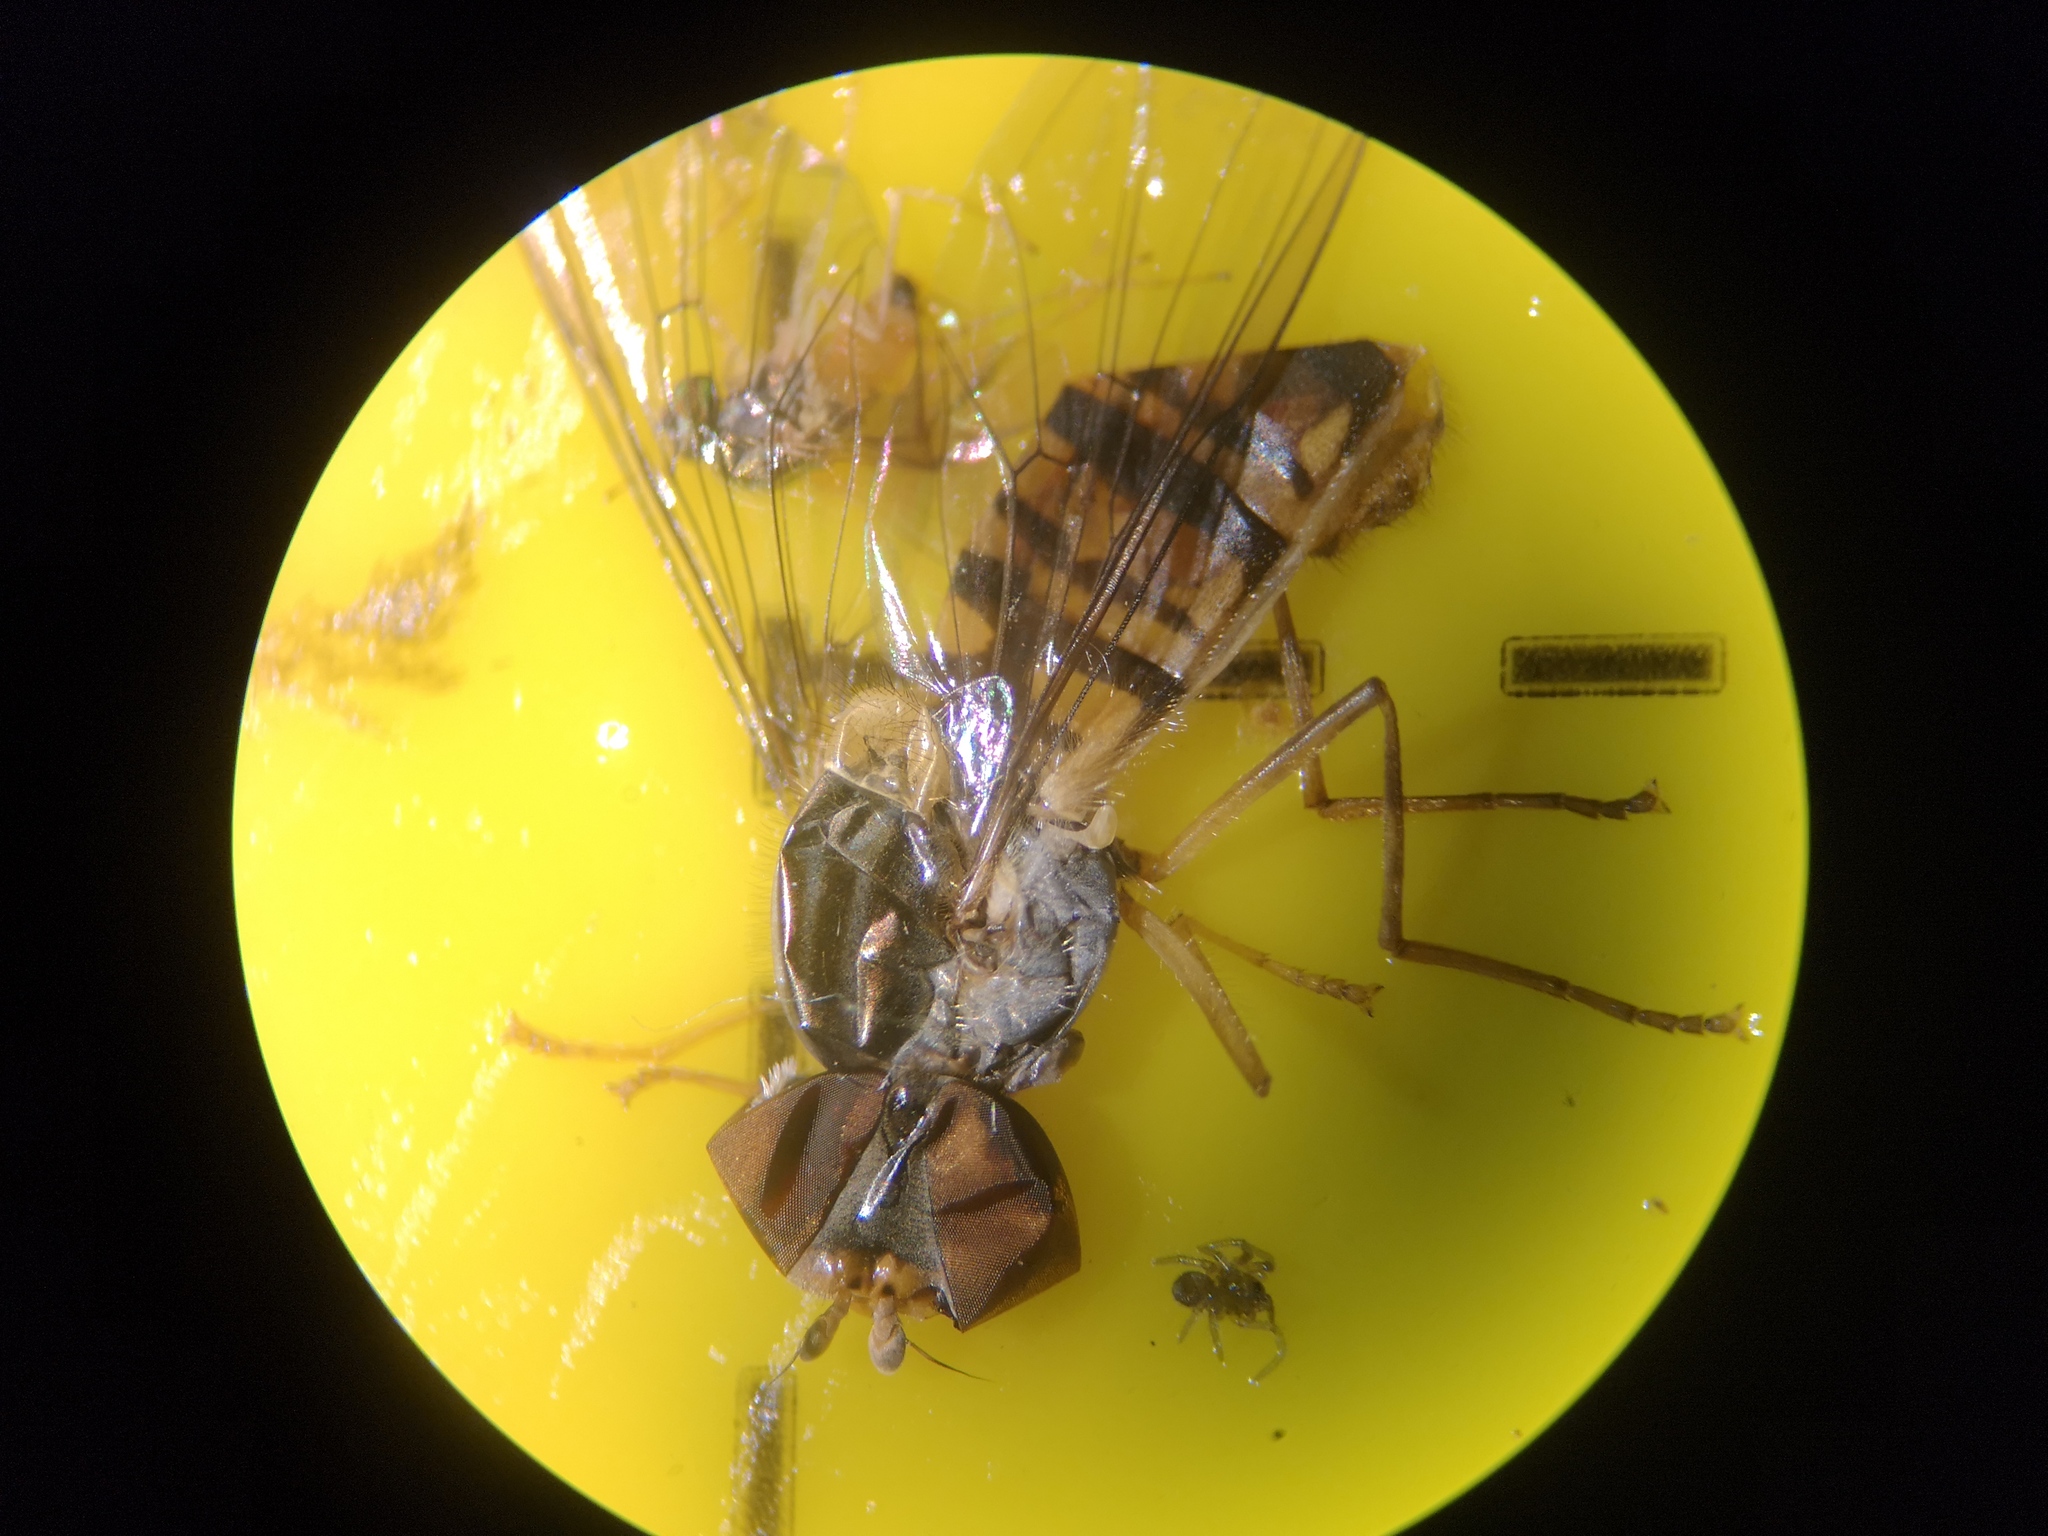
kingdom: Animalia
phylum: Arthropoda
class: Insecta
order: Diptera
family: Syrphidae
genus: Episyrphus
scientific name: Episyrphus balteatus
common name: Marmalade hoverfly
